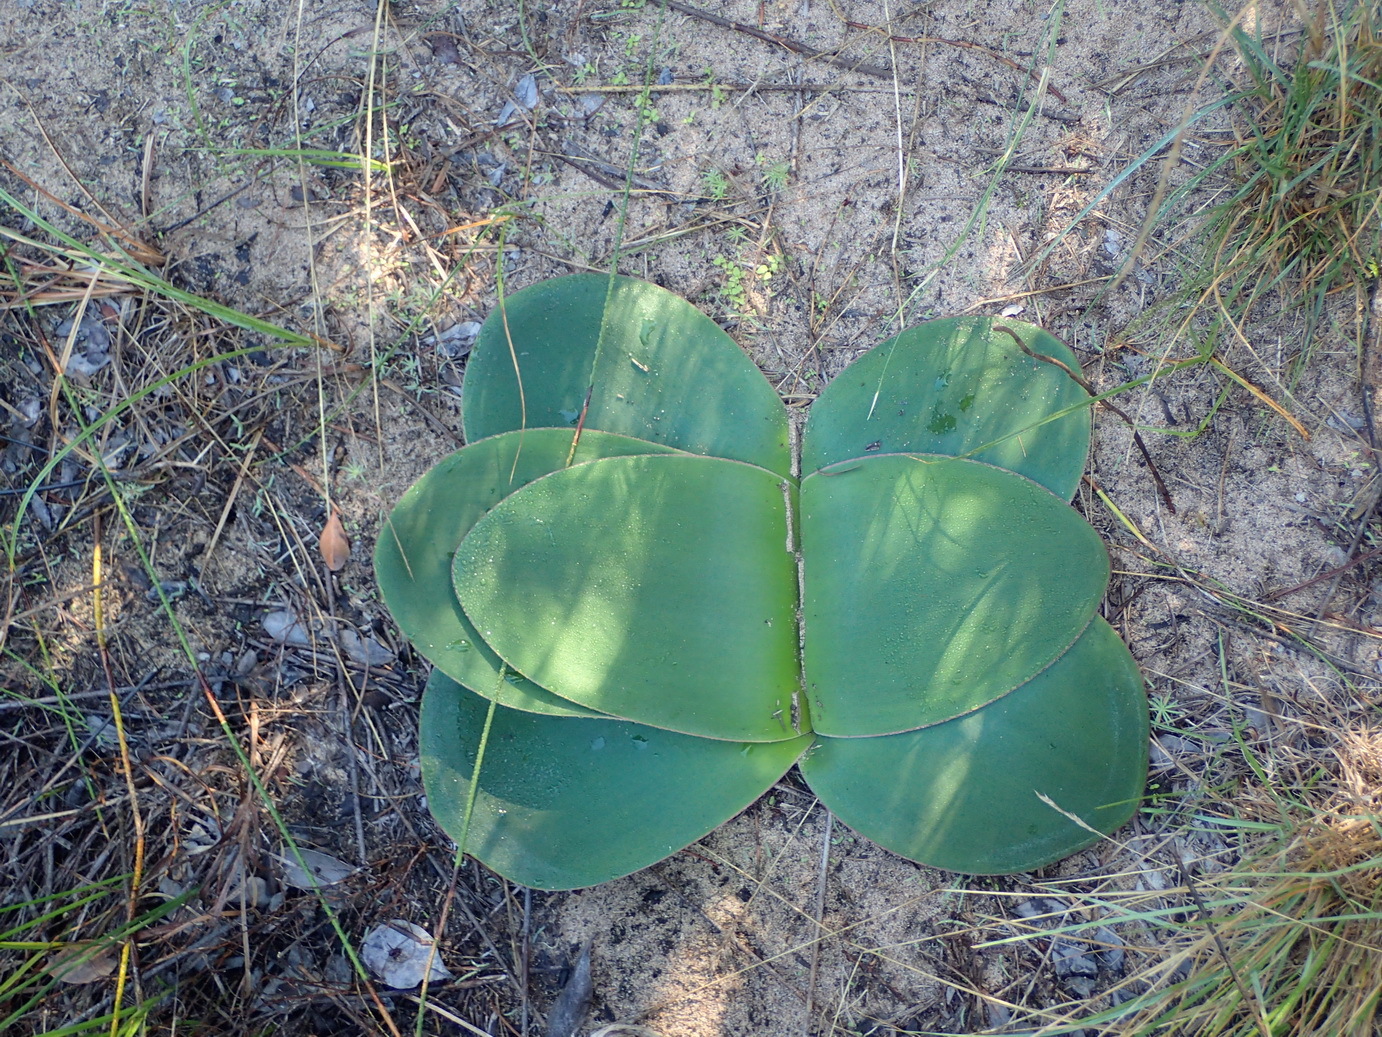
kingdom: Plantae
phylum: Tracheophyta
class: Liliopsida
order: Asparagales
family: Amaryllidaceae
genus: Brunsvigia
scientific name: Brunsvigia orientalis
